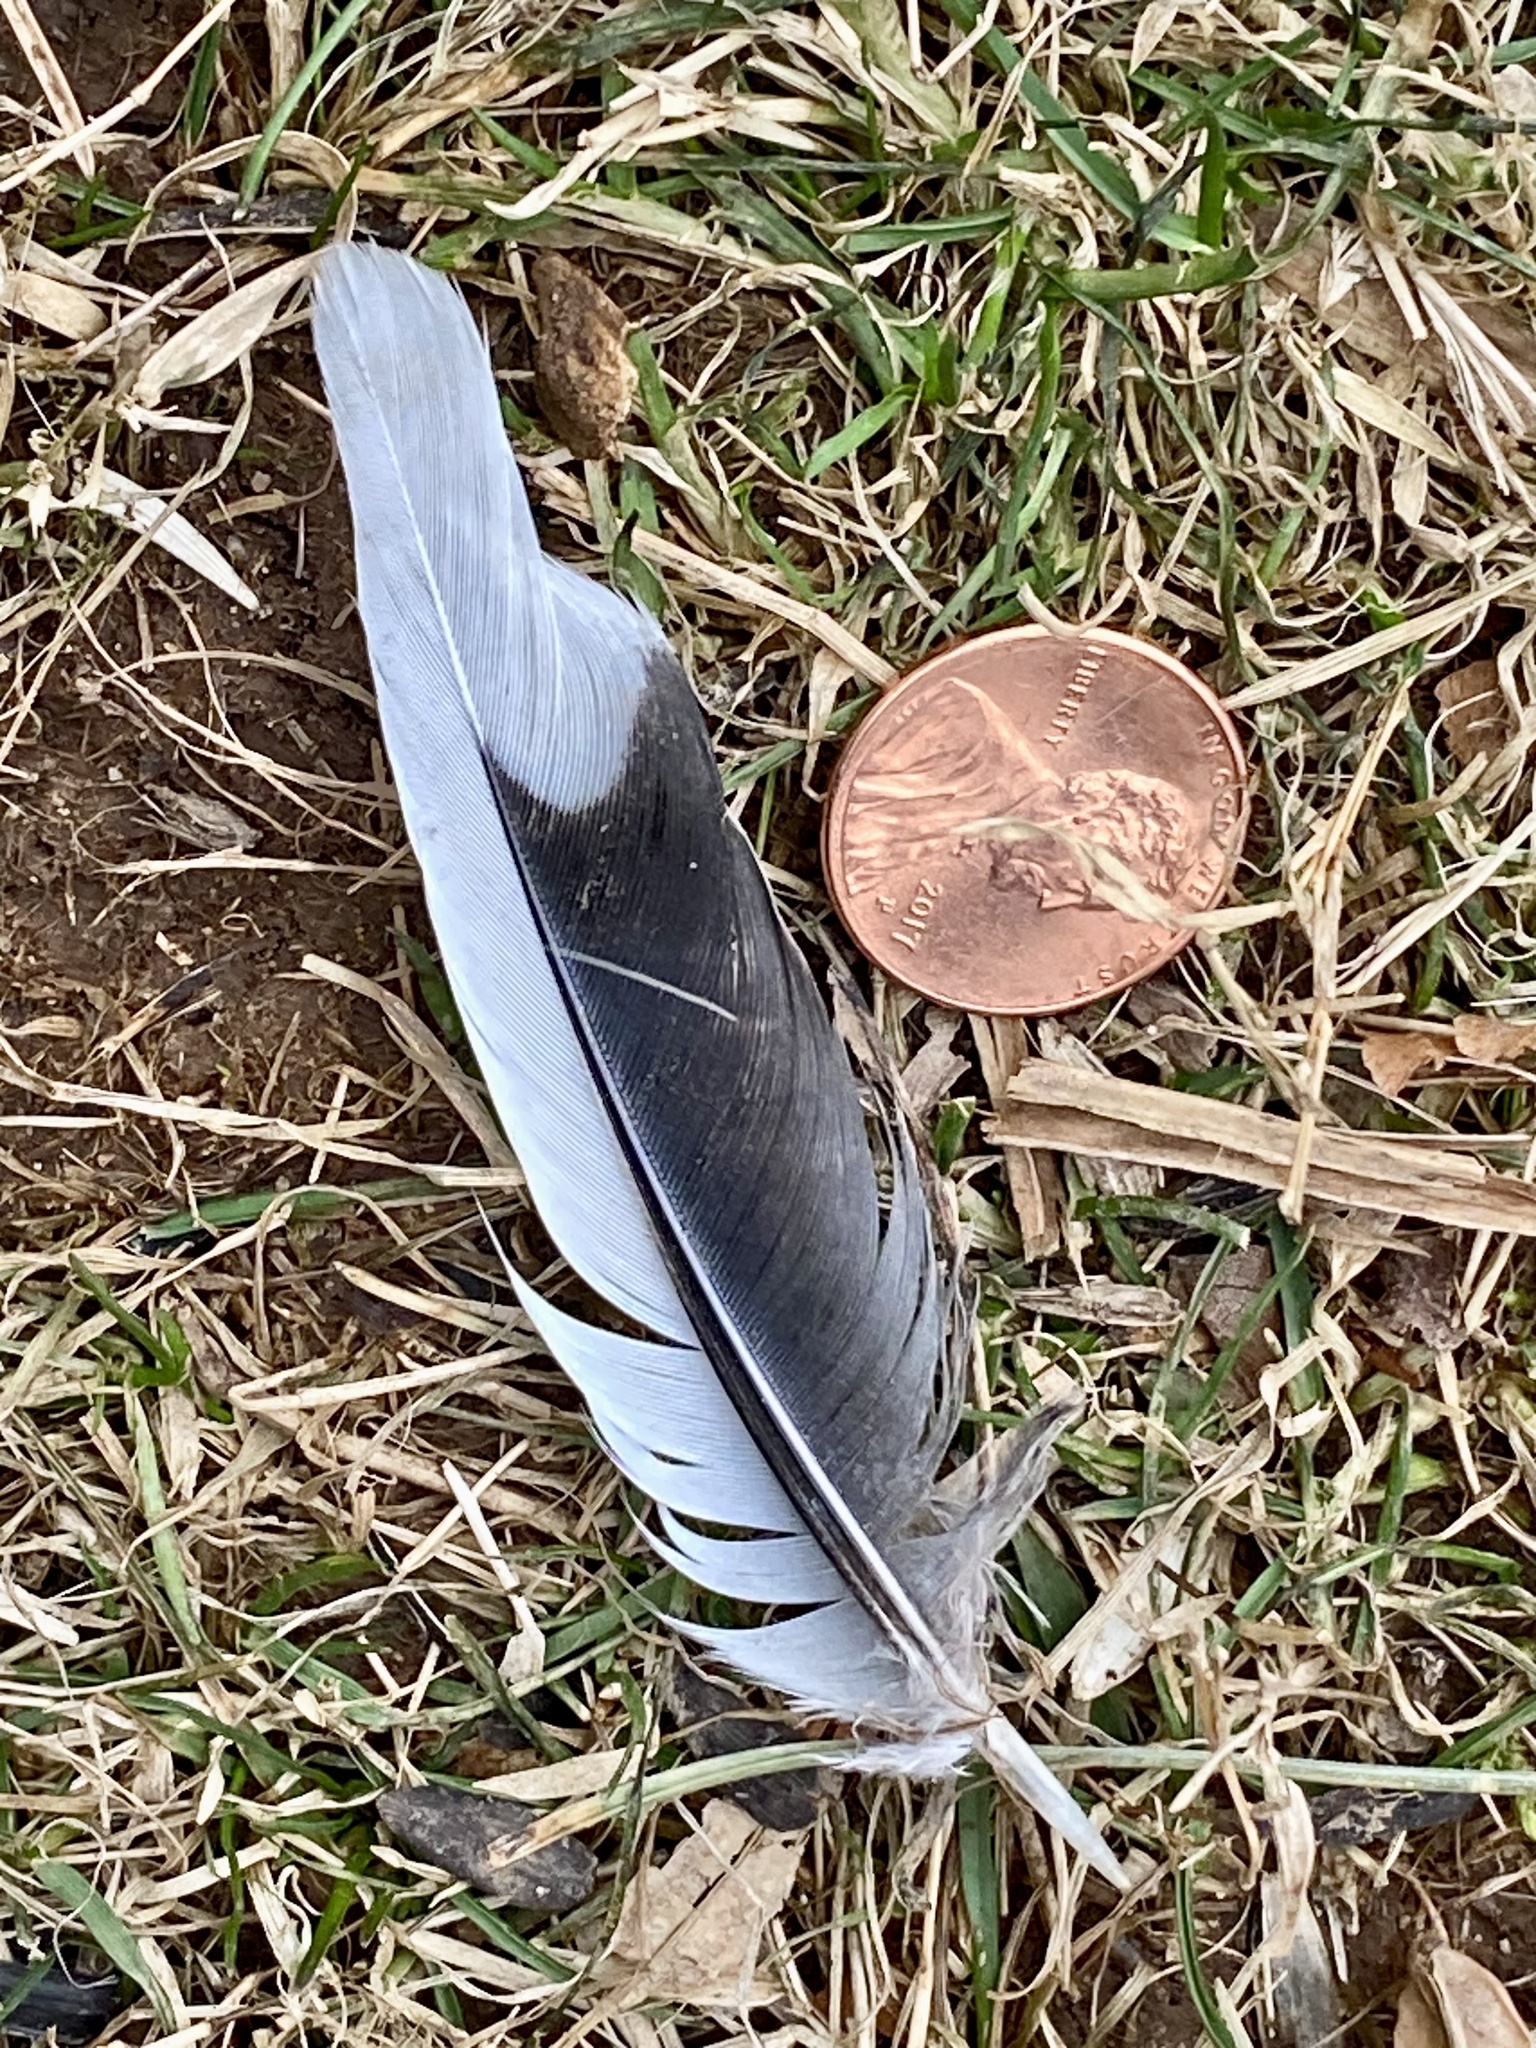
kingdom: Animalia
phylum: Chordata
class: Aves
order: Columbiformes
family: Columbidae
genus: Zenaida
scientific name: Zenaida macroura
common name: Mourning dove
